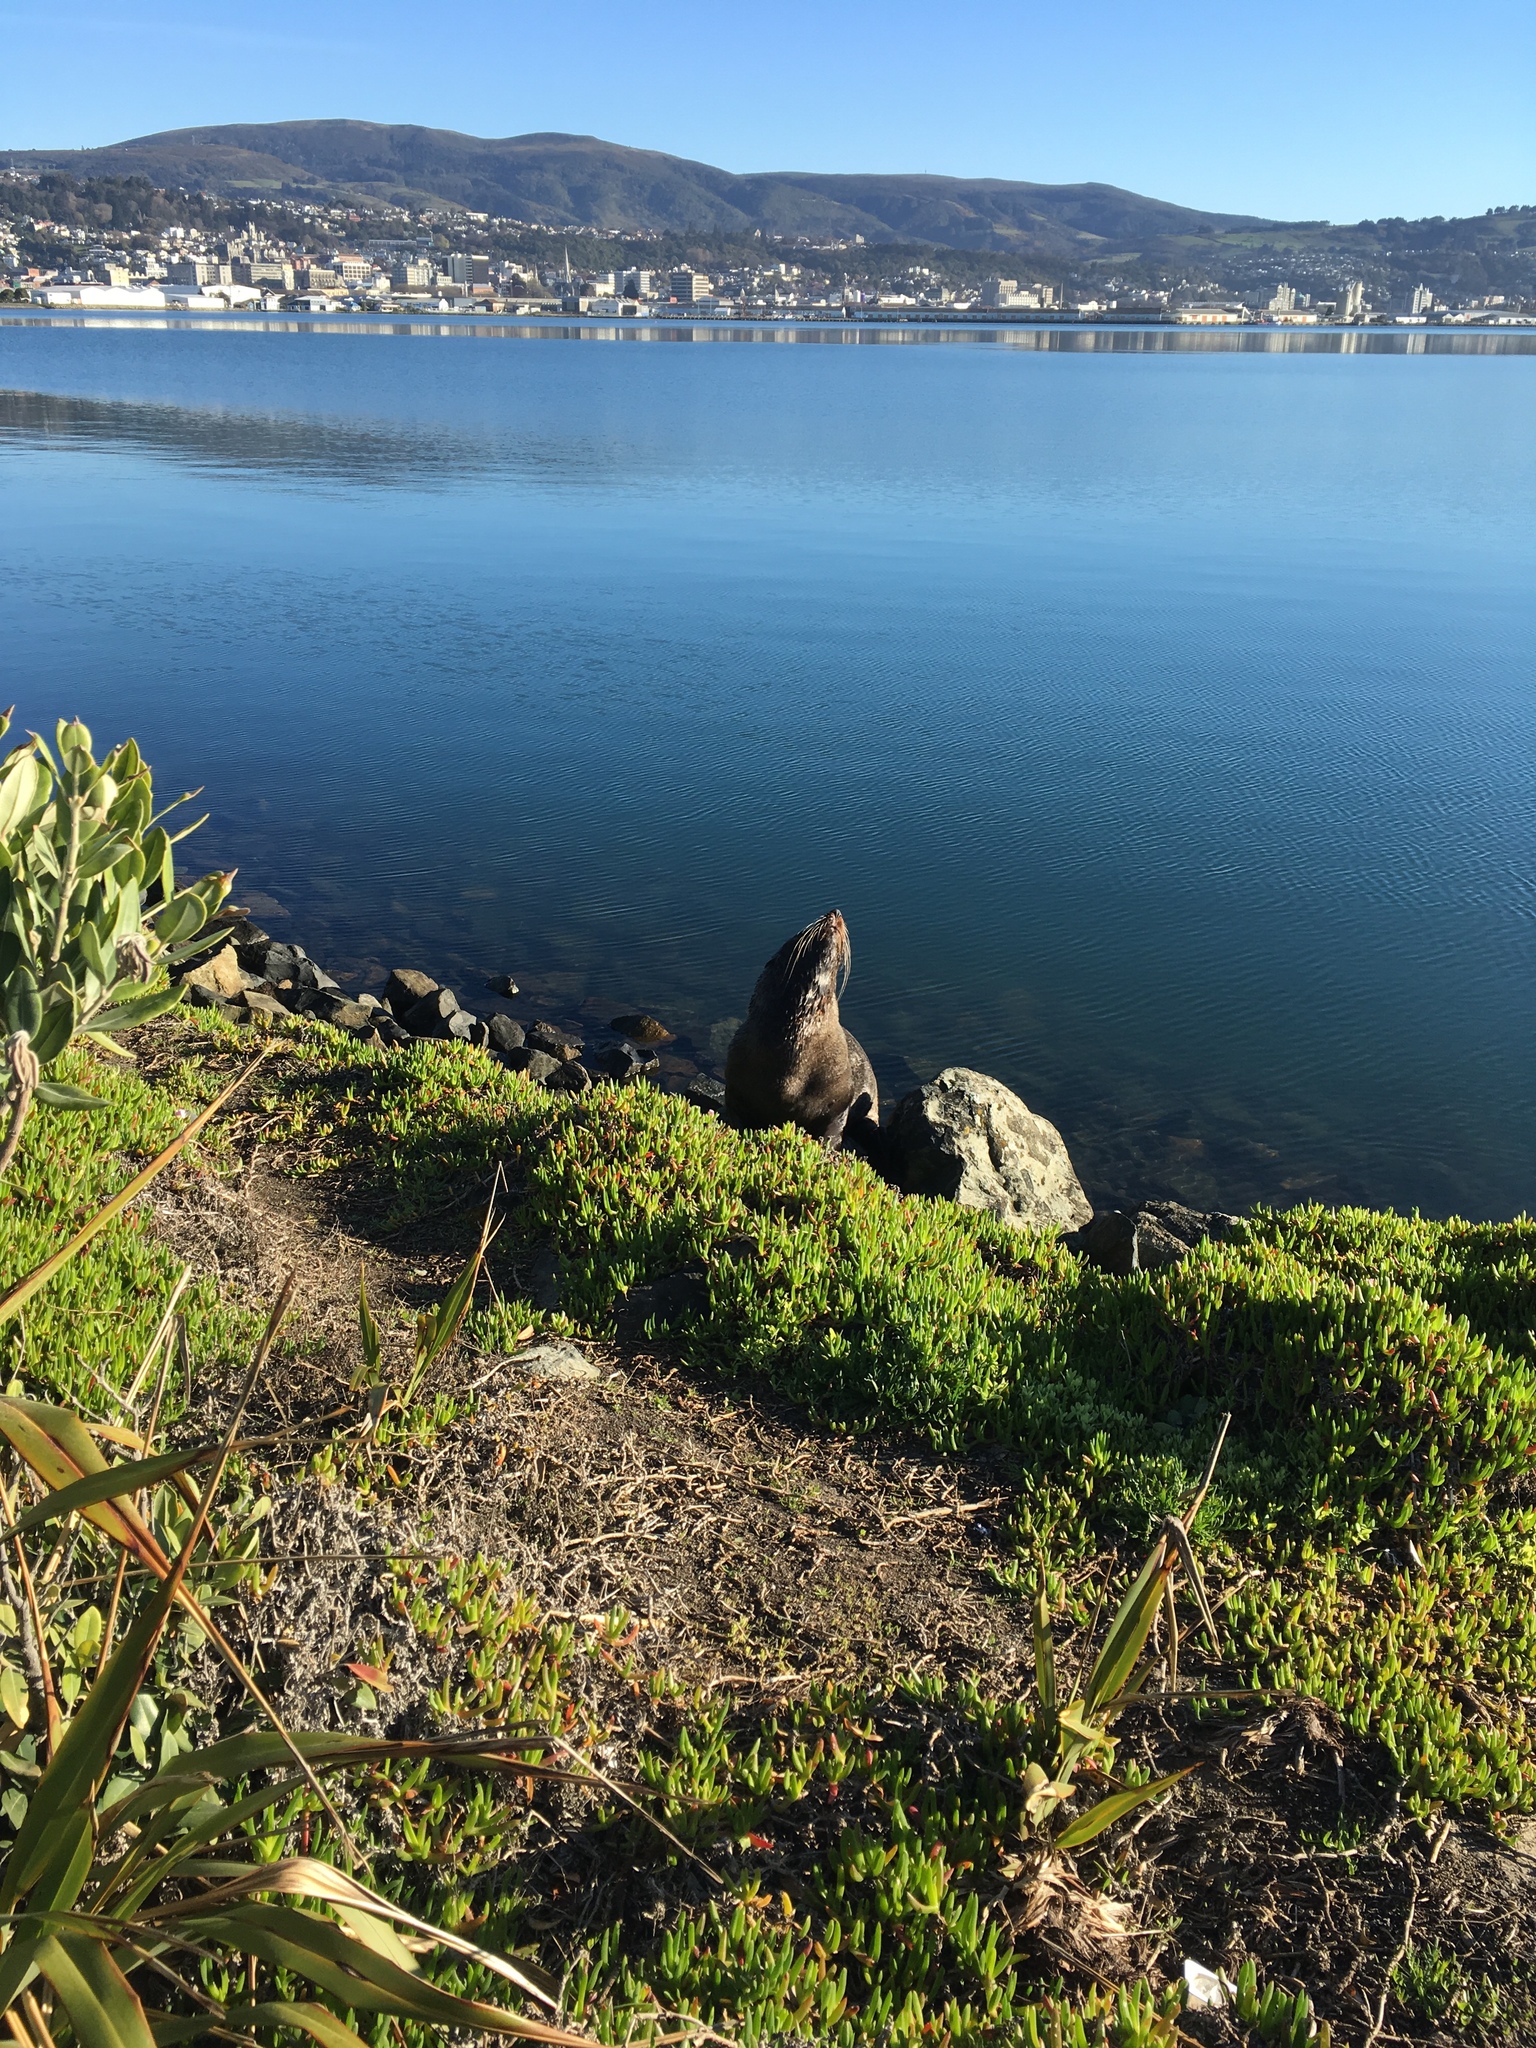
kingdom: Animalia
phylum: Chordata
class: Mammalia
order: Carnivora
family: Otariidae
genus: Arctocephalus
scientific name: Arctocephalus forsteri
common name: New zealand fur seal
